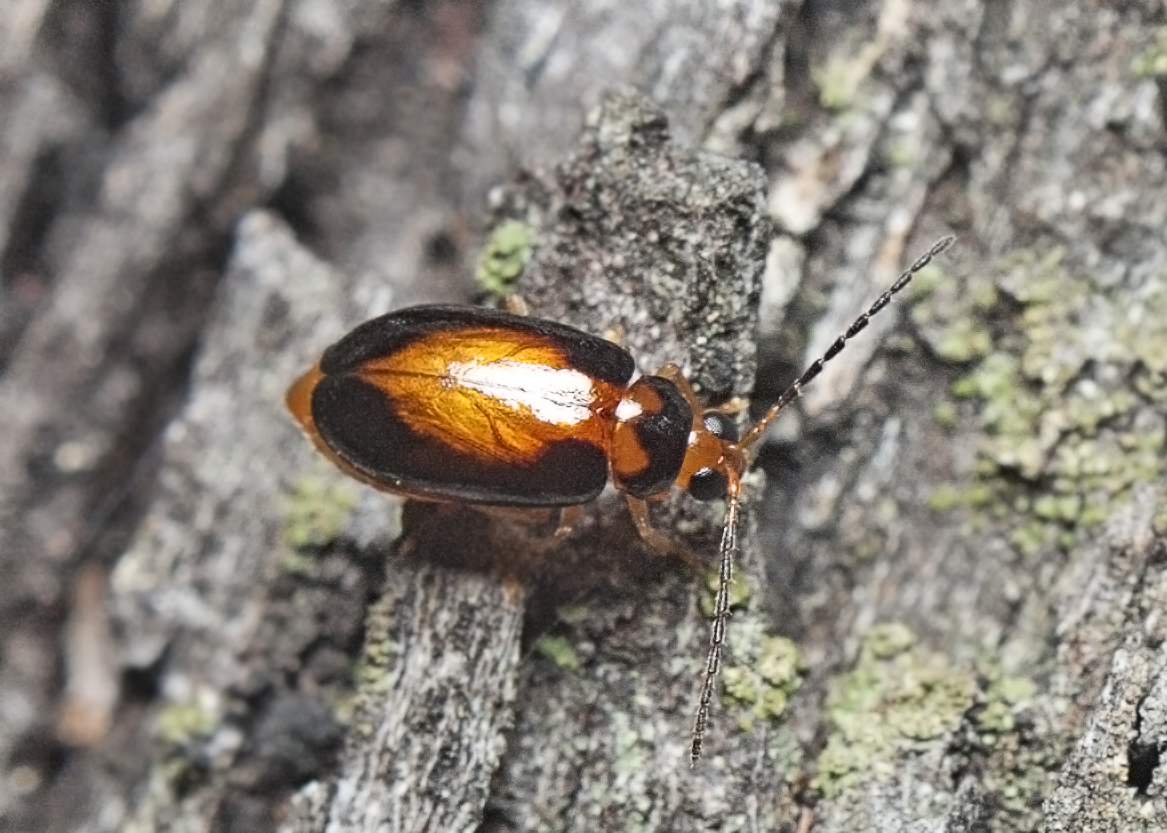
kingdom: Animalia
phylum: Arthropoda
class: Insecta
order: Coleoptera
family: Chrysomelidae
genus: Monolepta
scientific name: Monolepta
